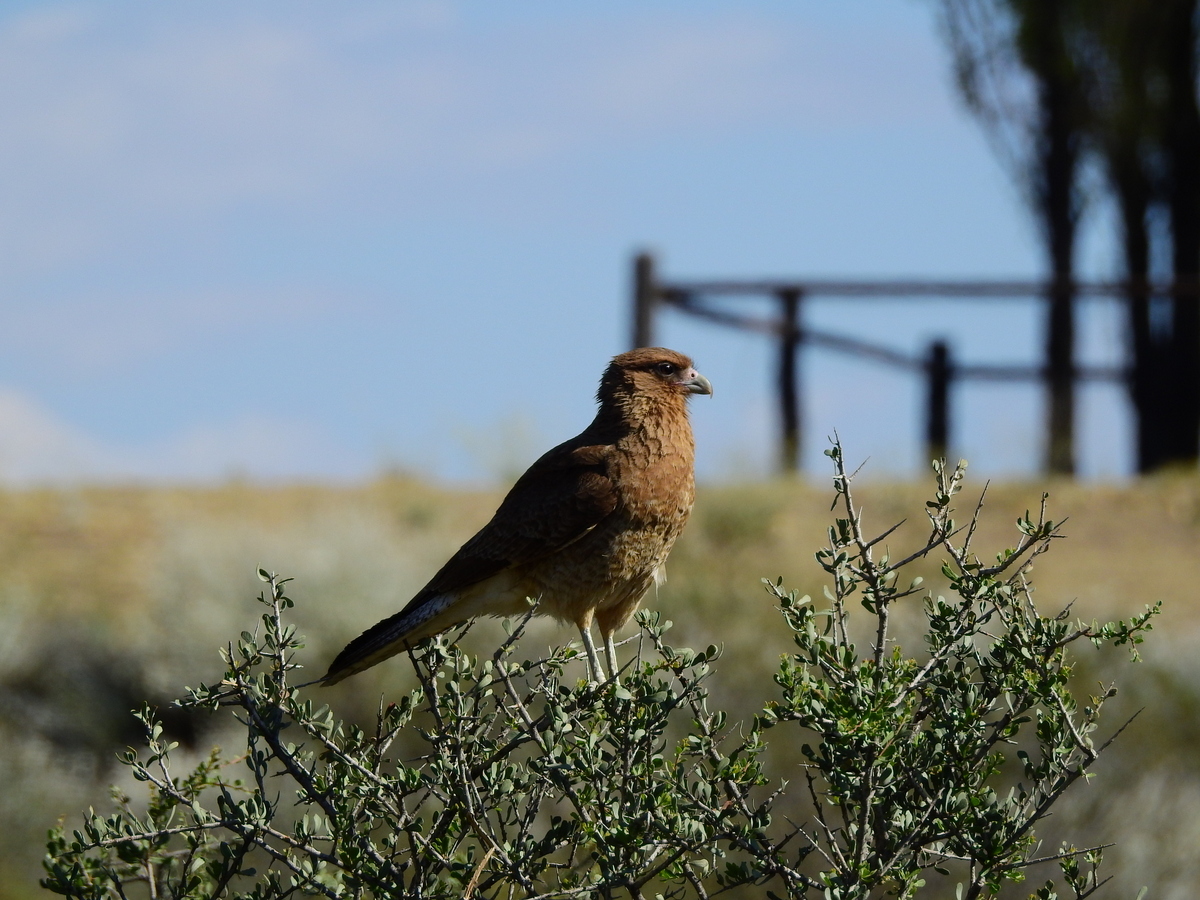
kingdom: Animalia
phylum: Chordata
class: Aves
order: Falconiformes
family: Falconidae
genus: Daptrius
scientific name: Daptrius
